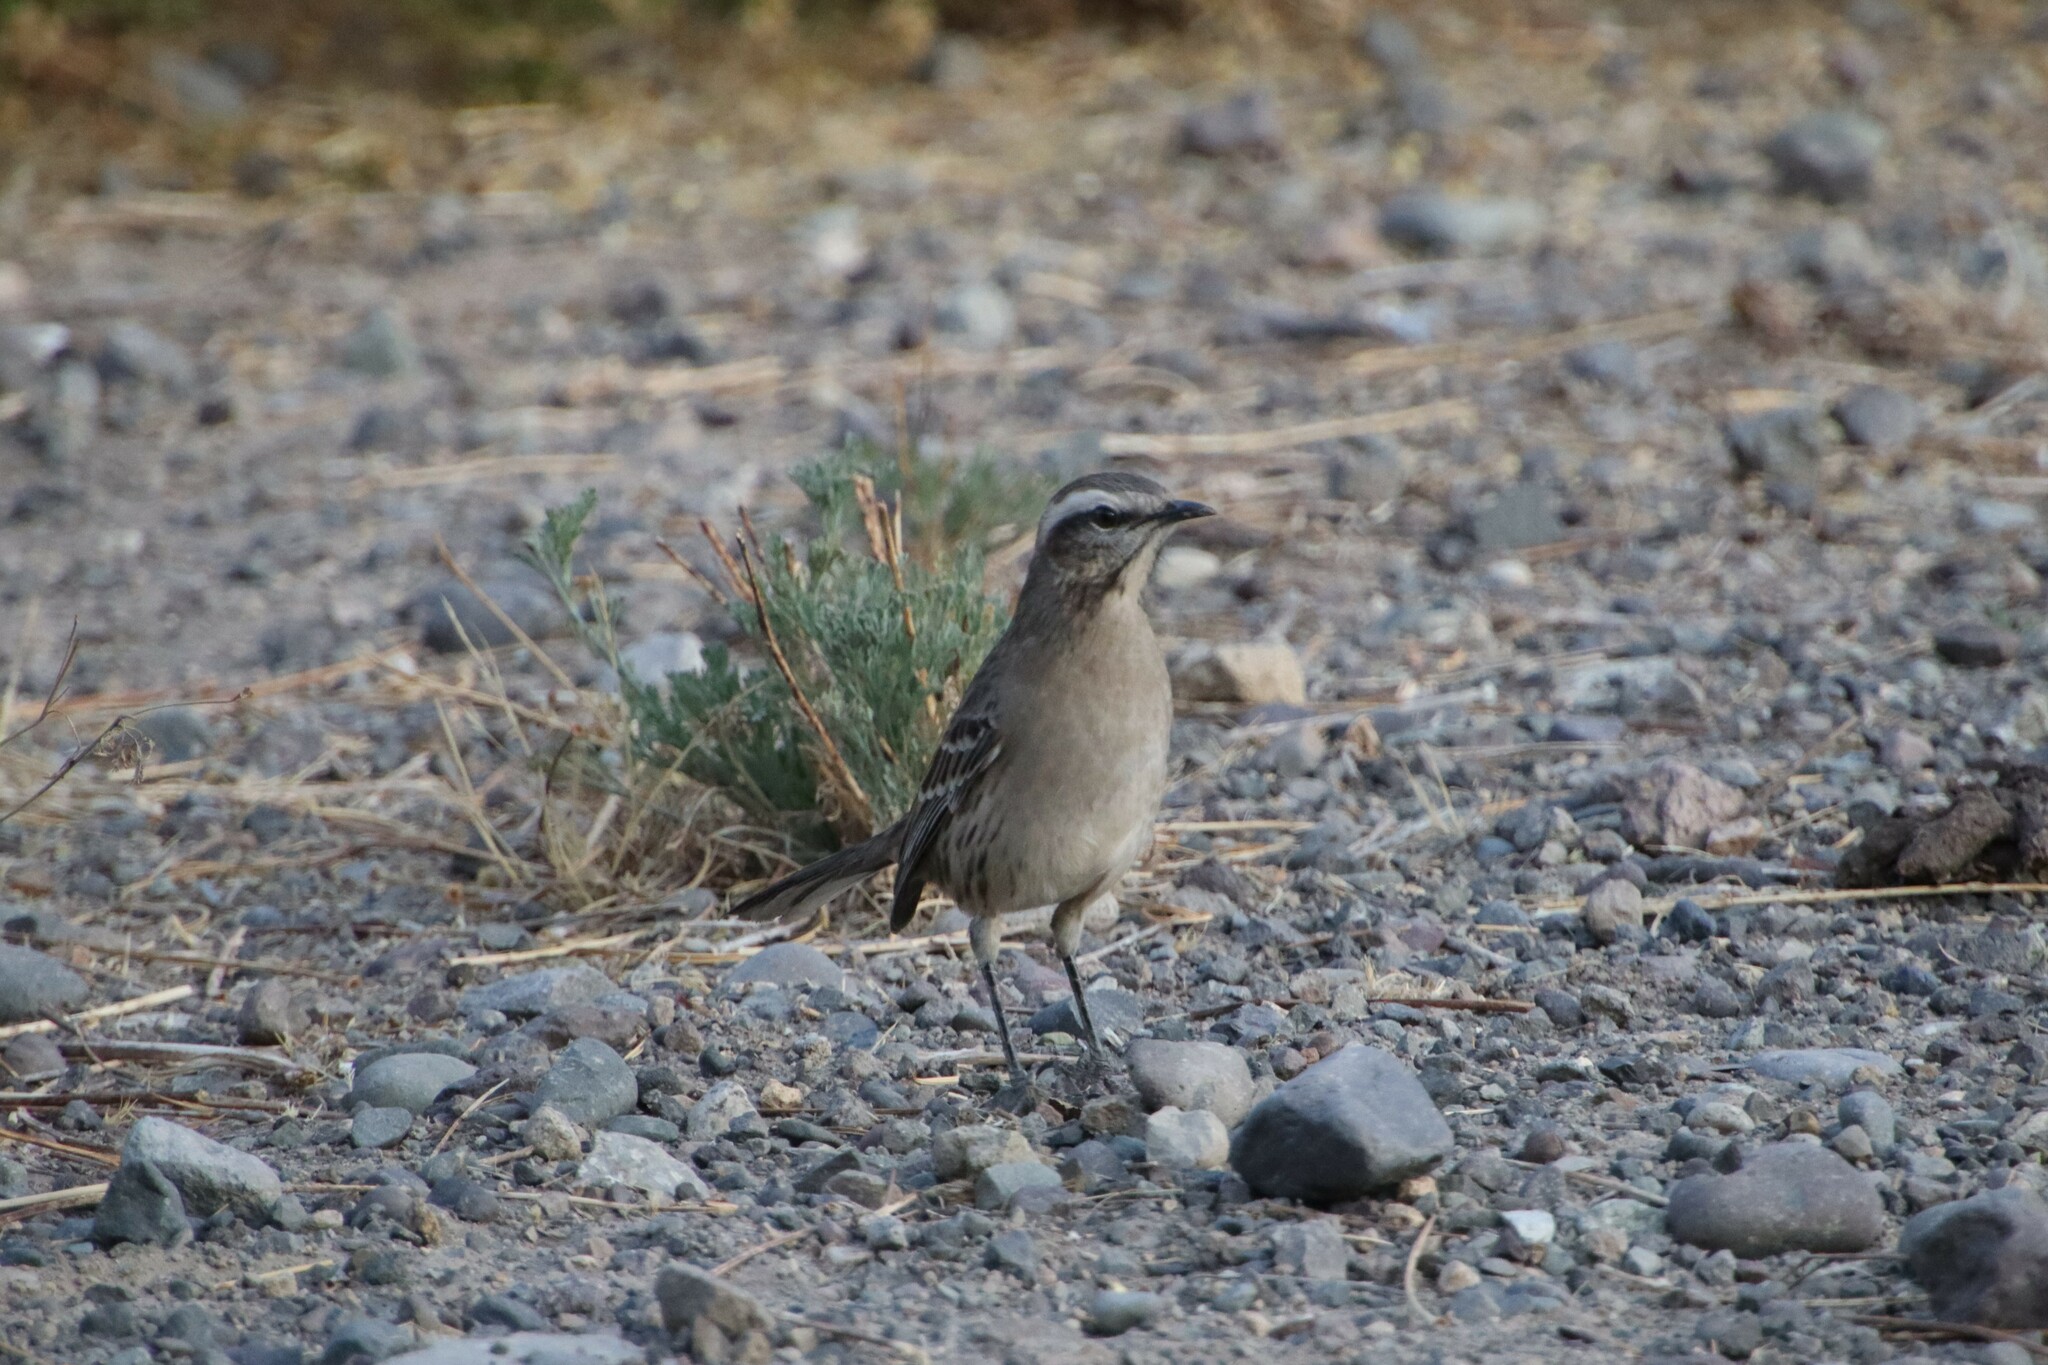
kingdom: Animalia
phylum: Chordata
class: Aves
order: Passeriformes
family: Mimidae
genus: Mimus
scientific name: Mimus thenca
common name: Chilean mockingbird
